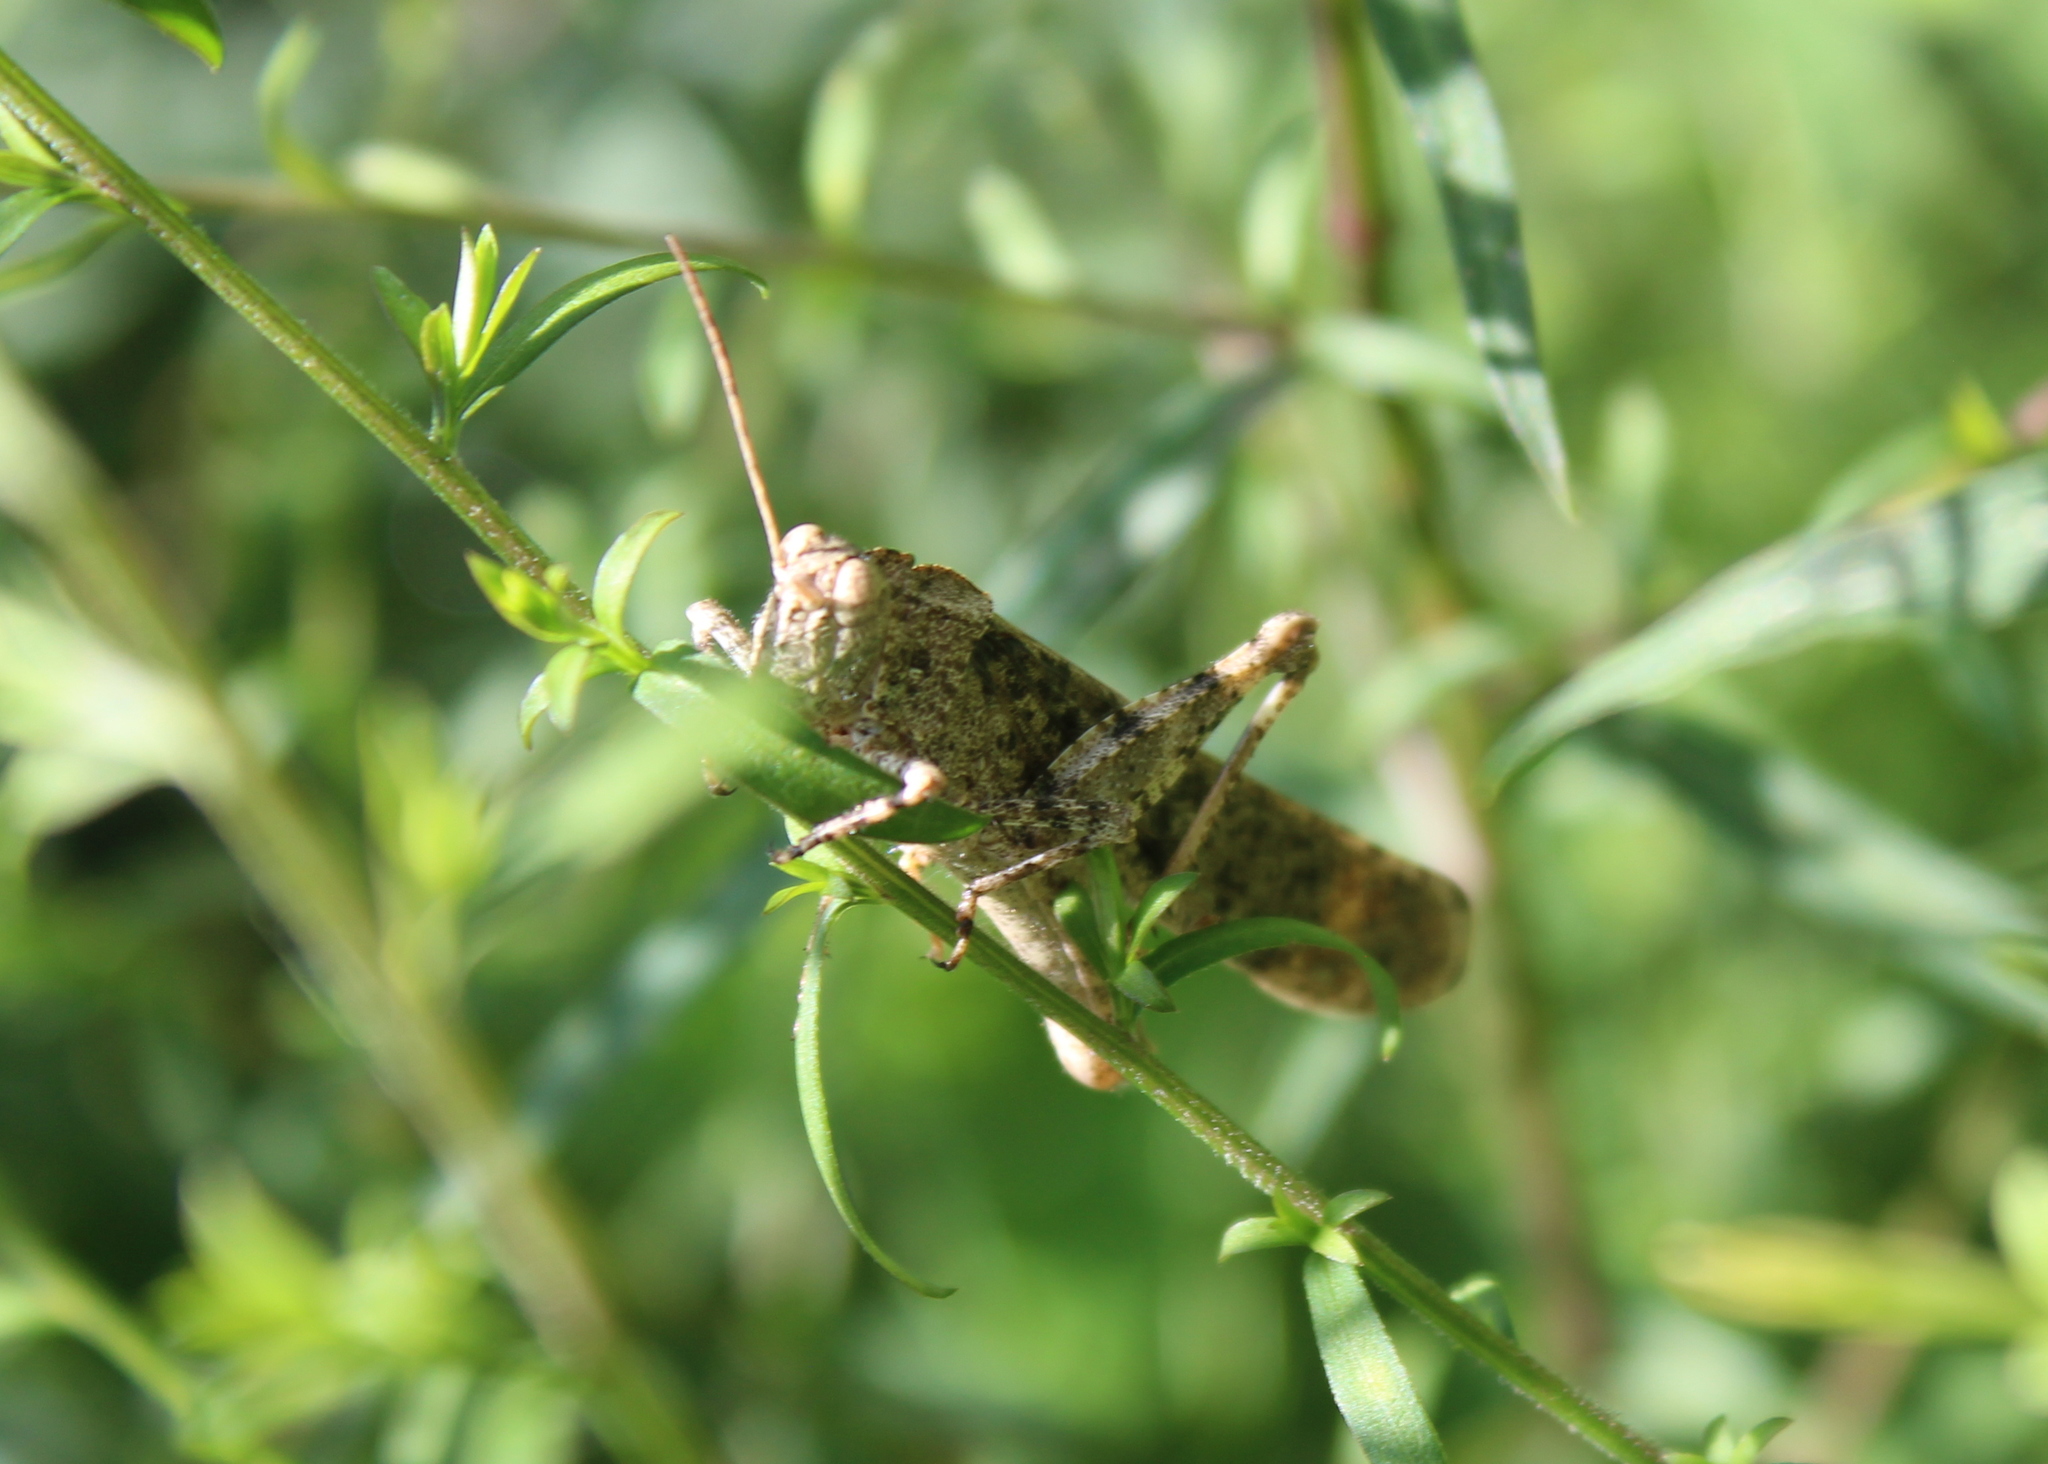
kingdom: Animalia
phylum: Arthropoda
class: Insecta
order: Orthoptera
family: Acrididae
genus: Dissosteira
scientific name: Dissosteira carolina
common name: Carolina grasshopper
